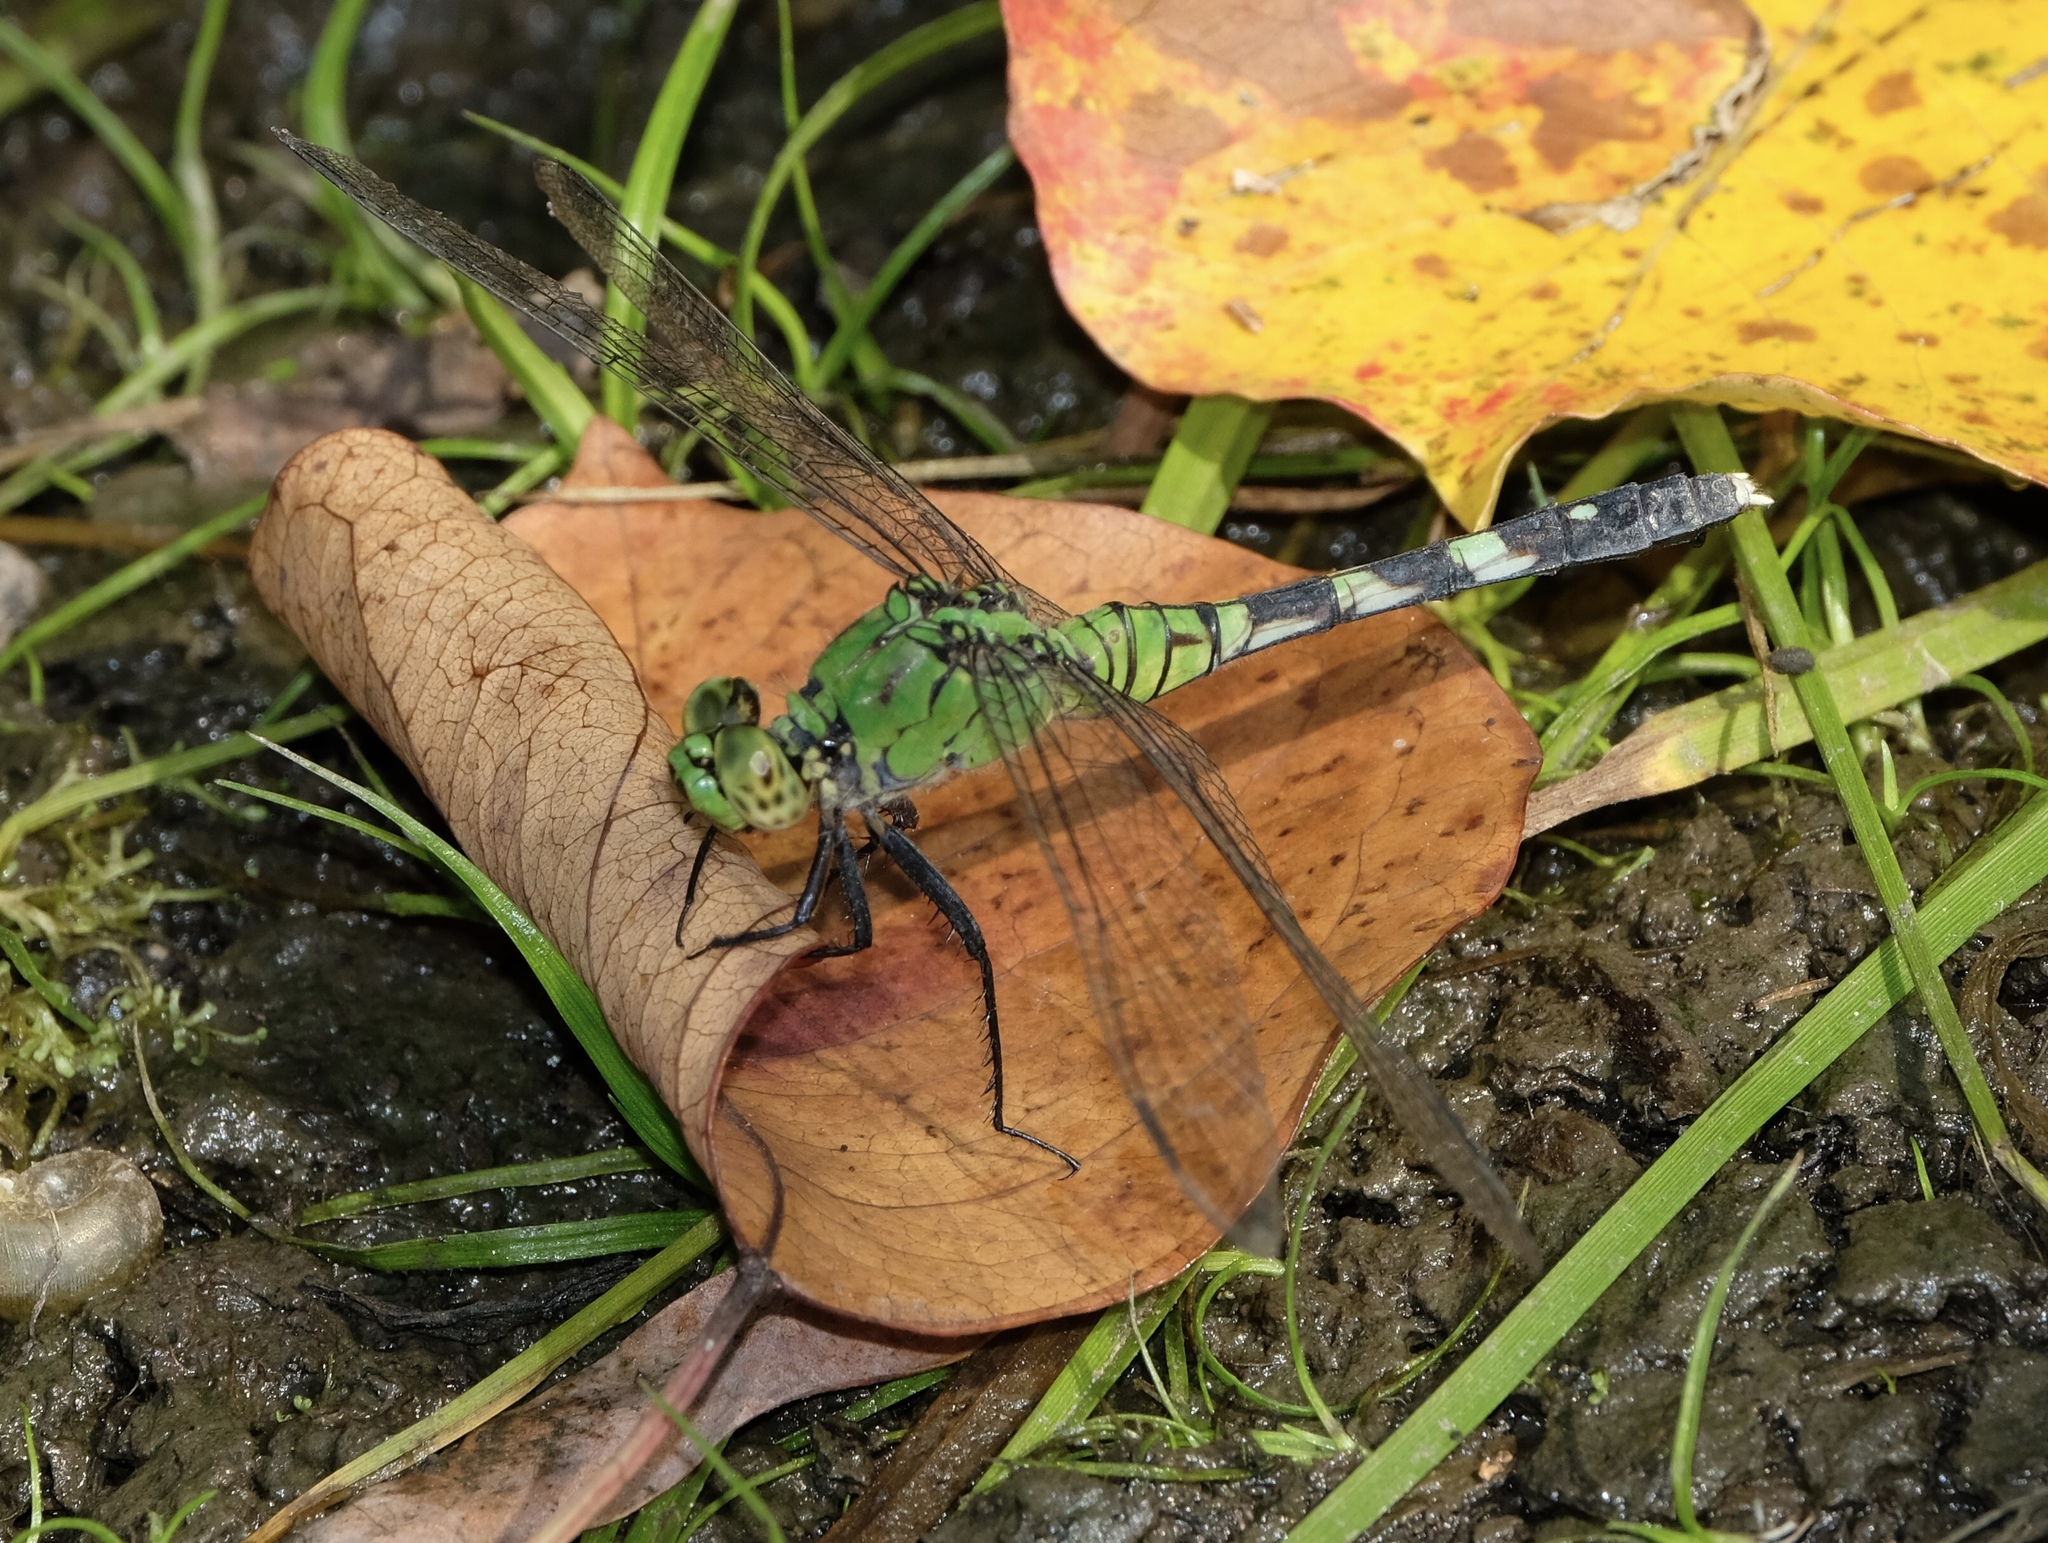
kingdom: Animalia
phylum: Arthropoda
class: Insecta
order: Odonata
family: Libellulidae
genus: Erythemis
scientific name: Erythemis simplicicollis
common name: Eastern pondhawk
